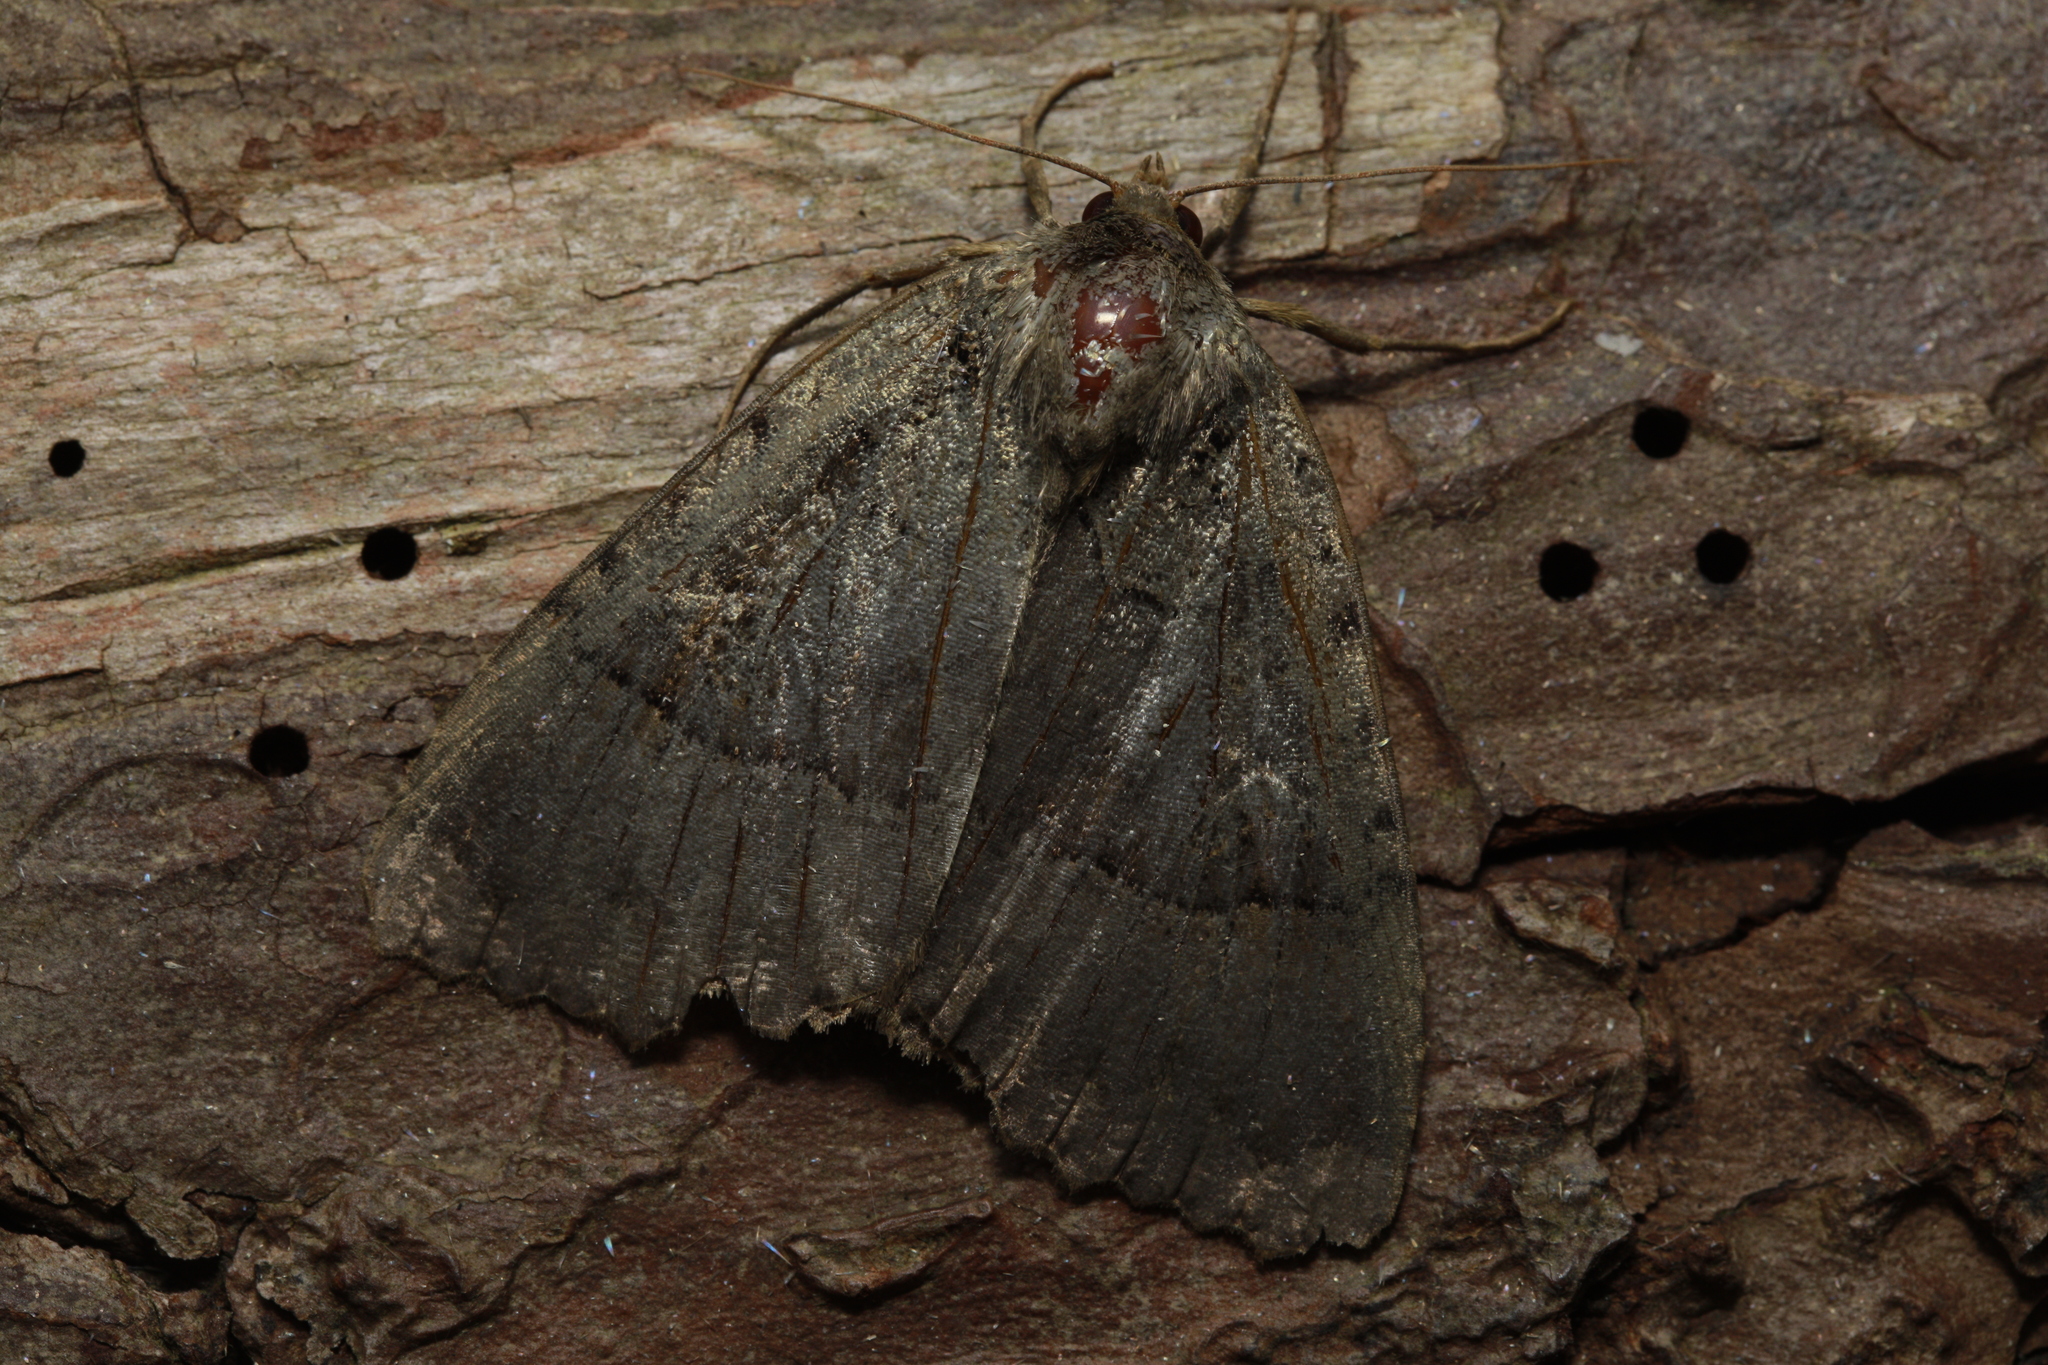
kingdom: Animalia
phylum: Arthropoda
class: Insecta
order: Lepidoptera
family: Noctuidae
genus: Mormo
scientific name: Mormo maura
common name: Old lady
